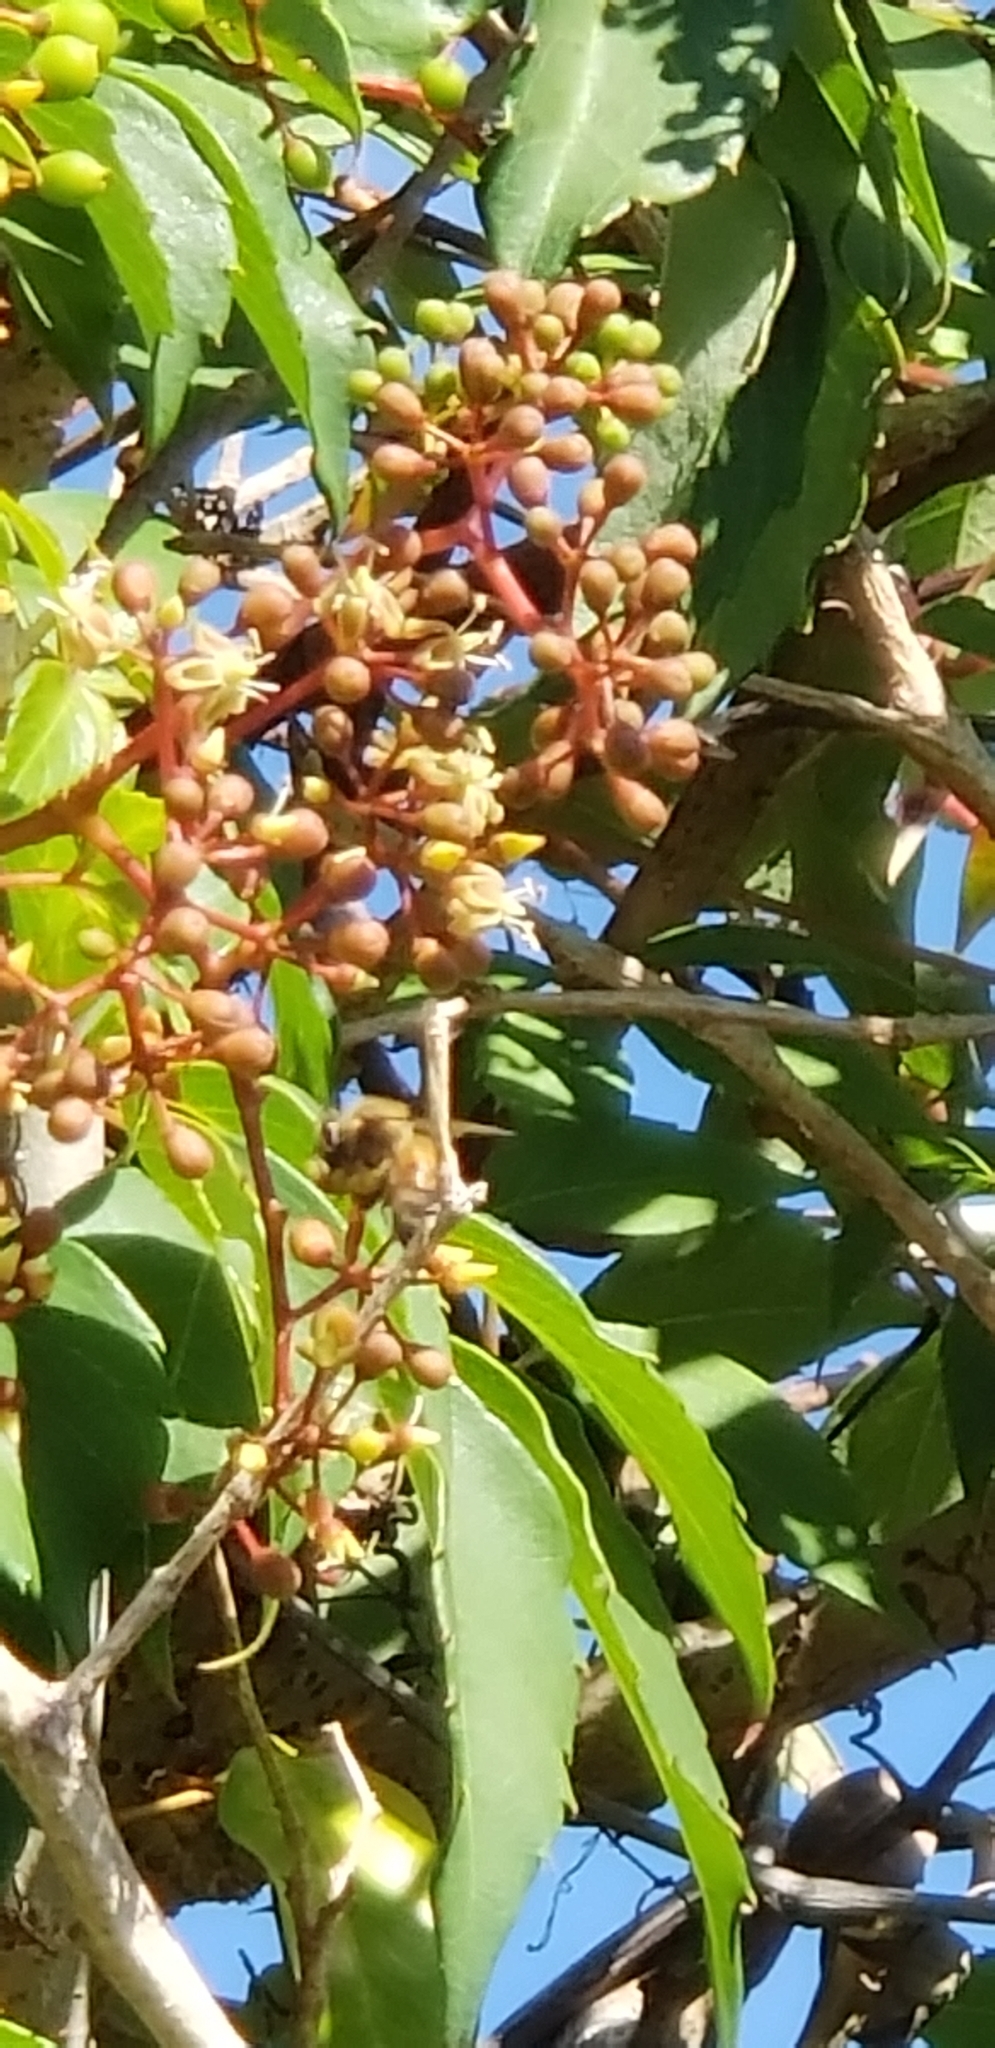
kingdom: Animalia
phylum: Arthropoda
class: Insecta
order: Hymenoptera
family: Apidae
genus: Apis
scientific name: Apis mellifera
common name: Honey bee
